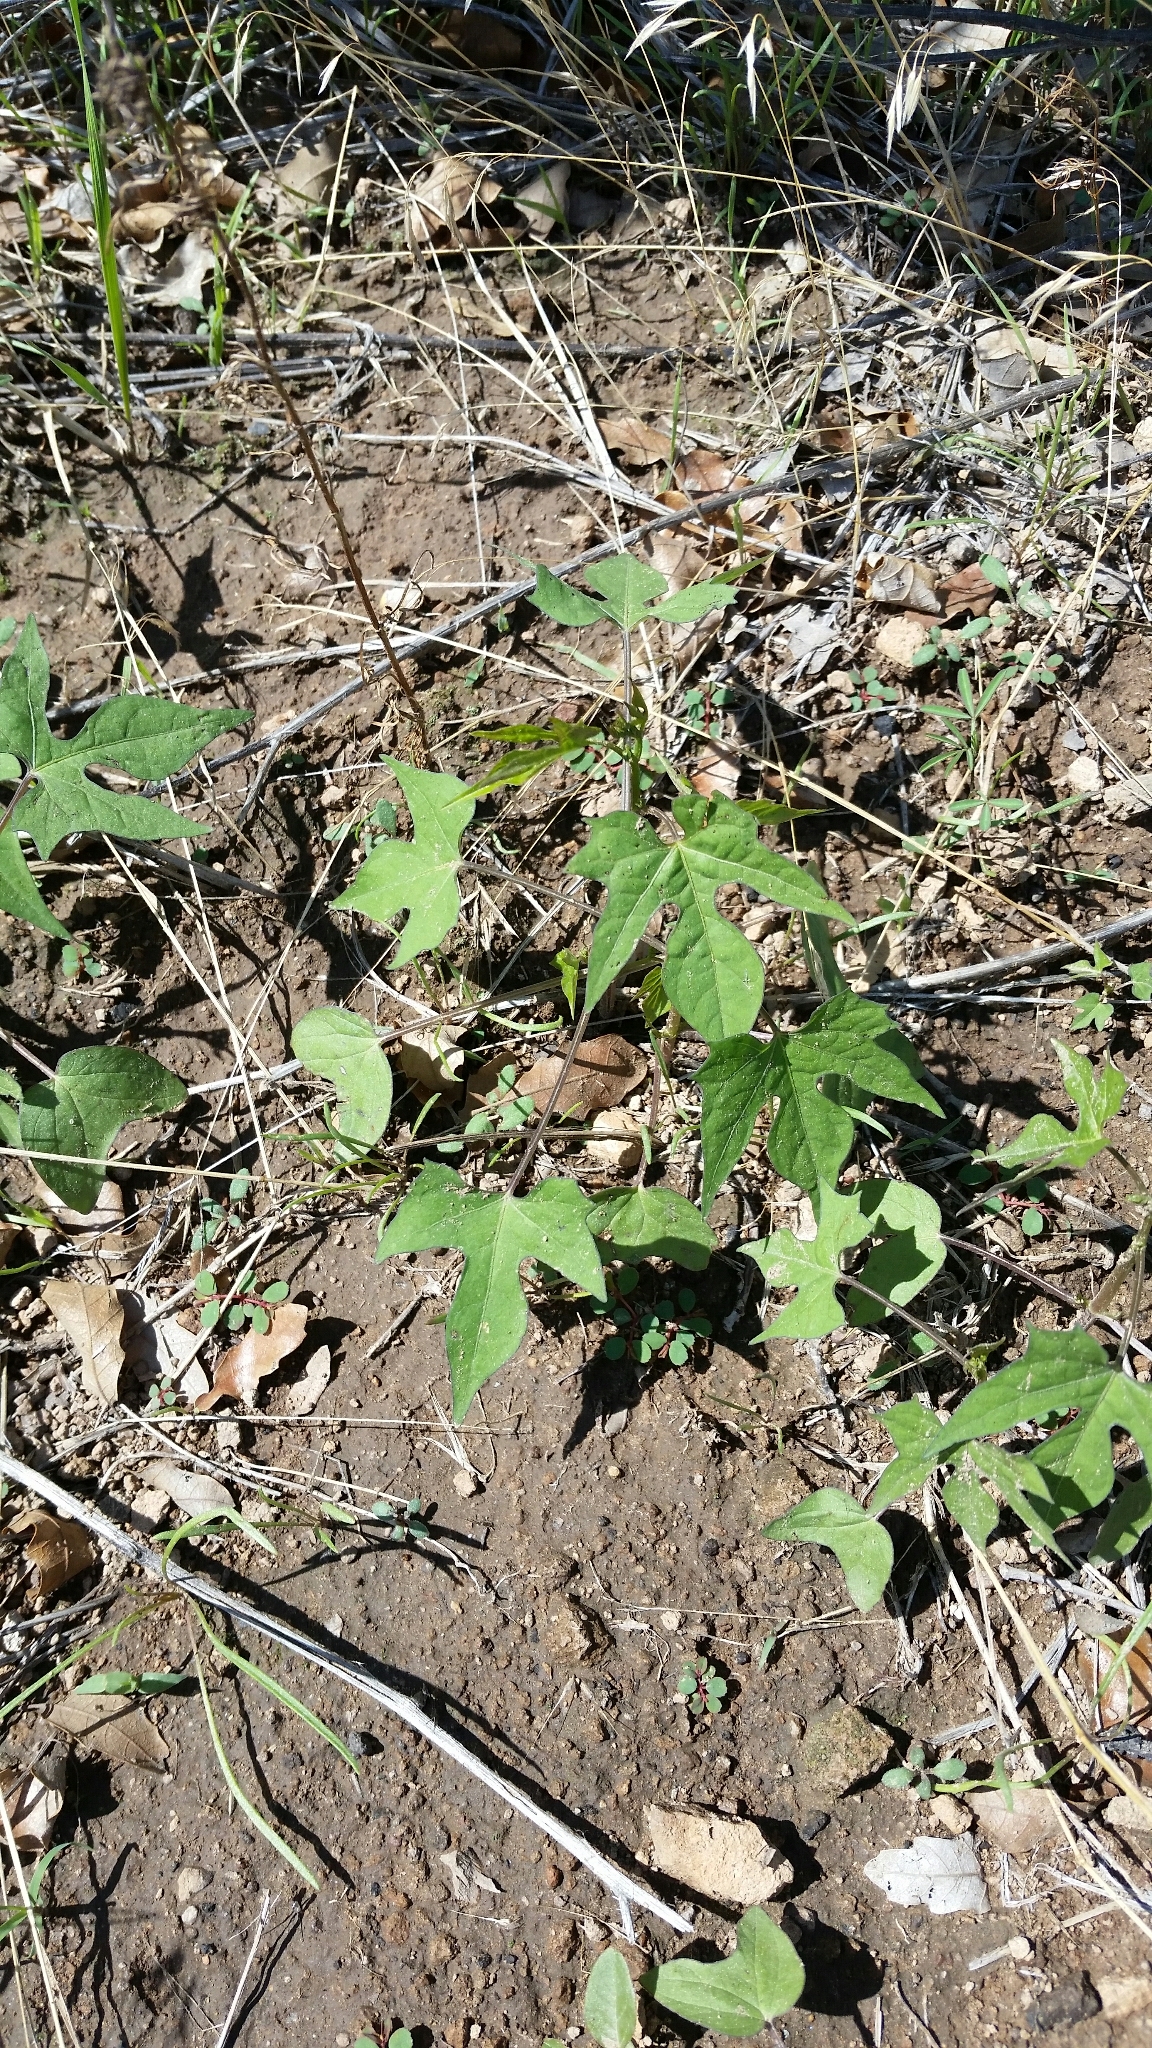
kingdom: Plantae
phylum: Tracheophyta
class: Magnoliopsida
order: Solanales
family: Convolvulaceae
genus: Ipomoea
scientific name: Ipomoea cristulata
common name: Trans-pecos morning-glory
